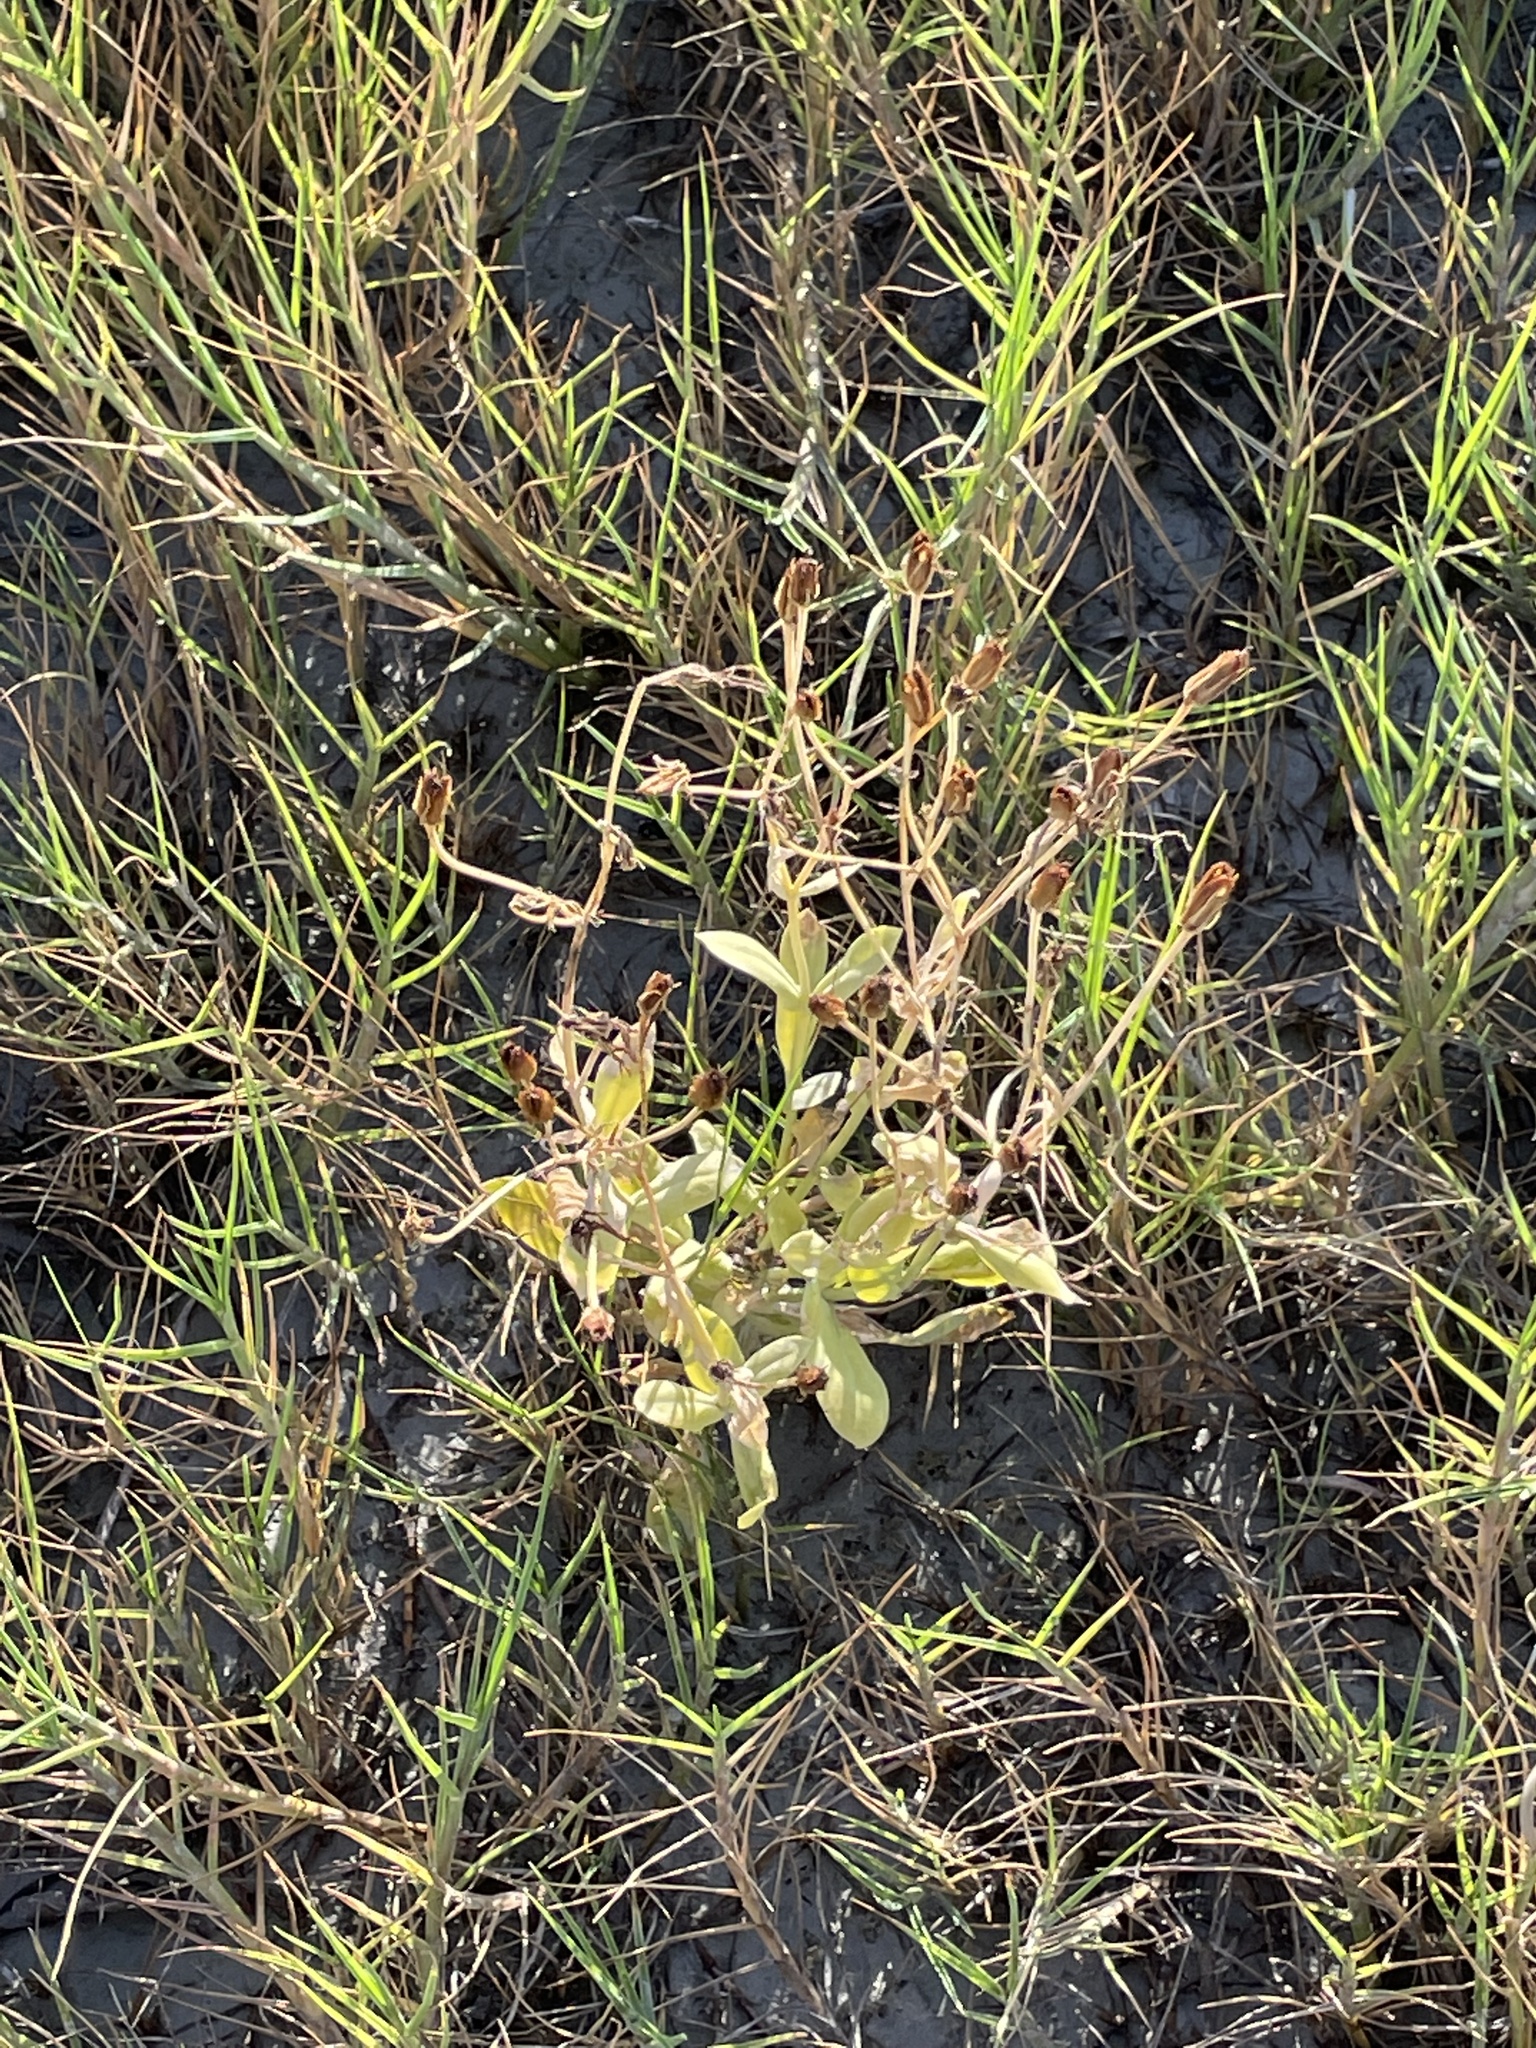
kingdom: Plantae
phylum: Tracheophyta
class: Magnoliopsida
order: Gentianales
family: Gentianaceae
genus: Eustoma
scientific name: Eustoma exaltatum
